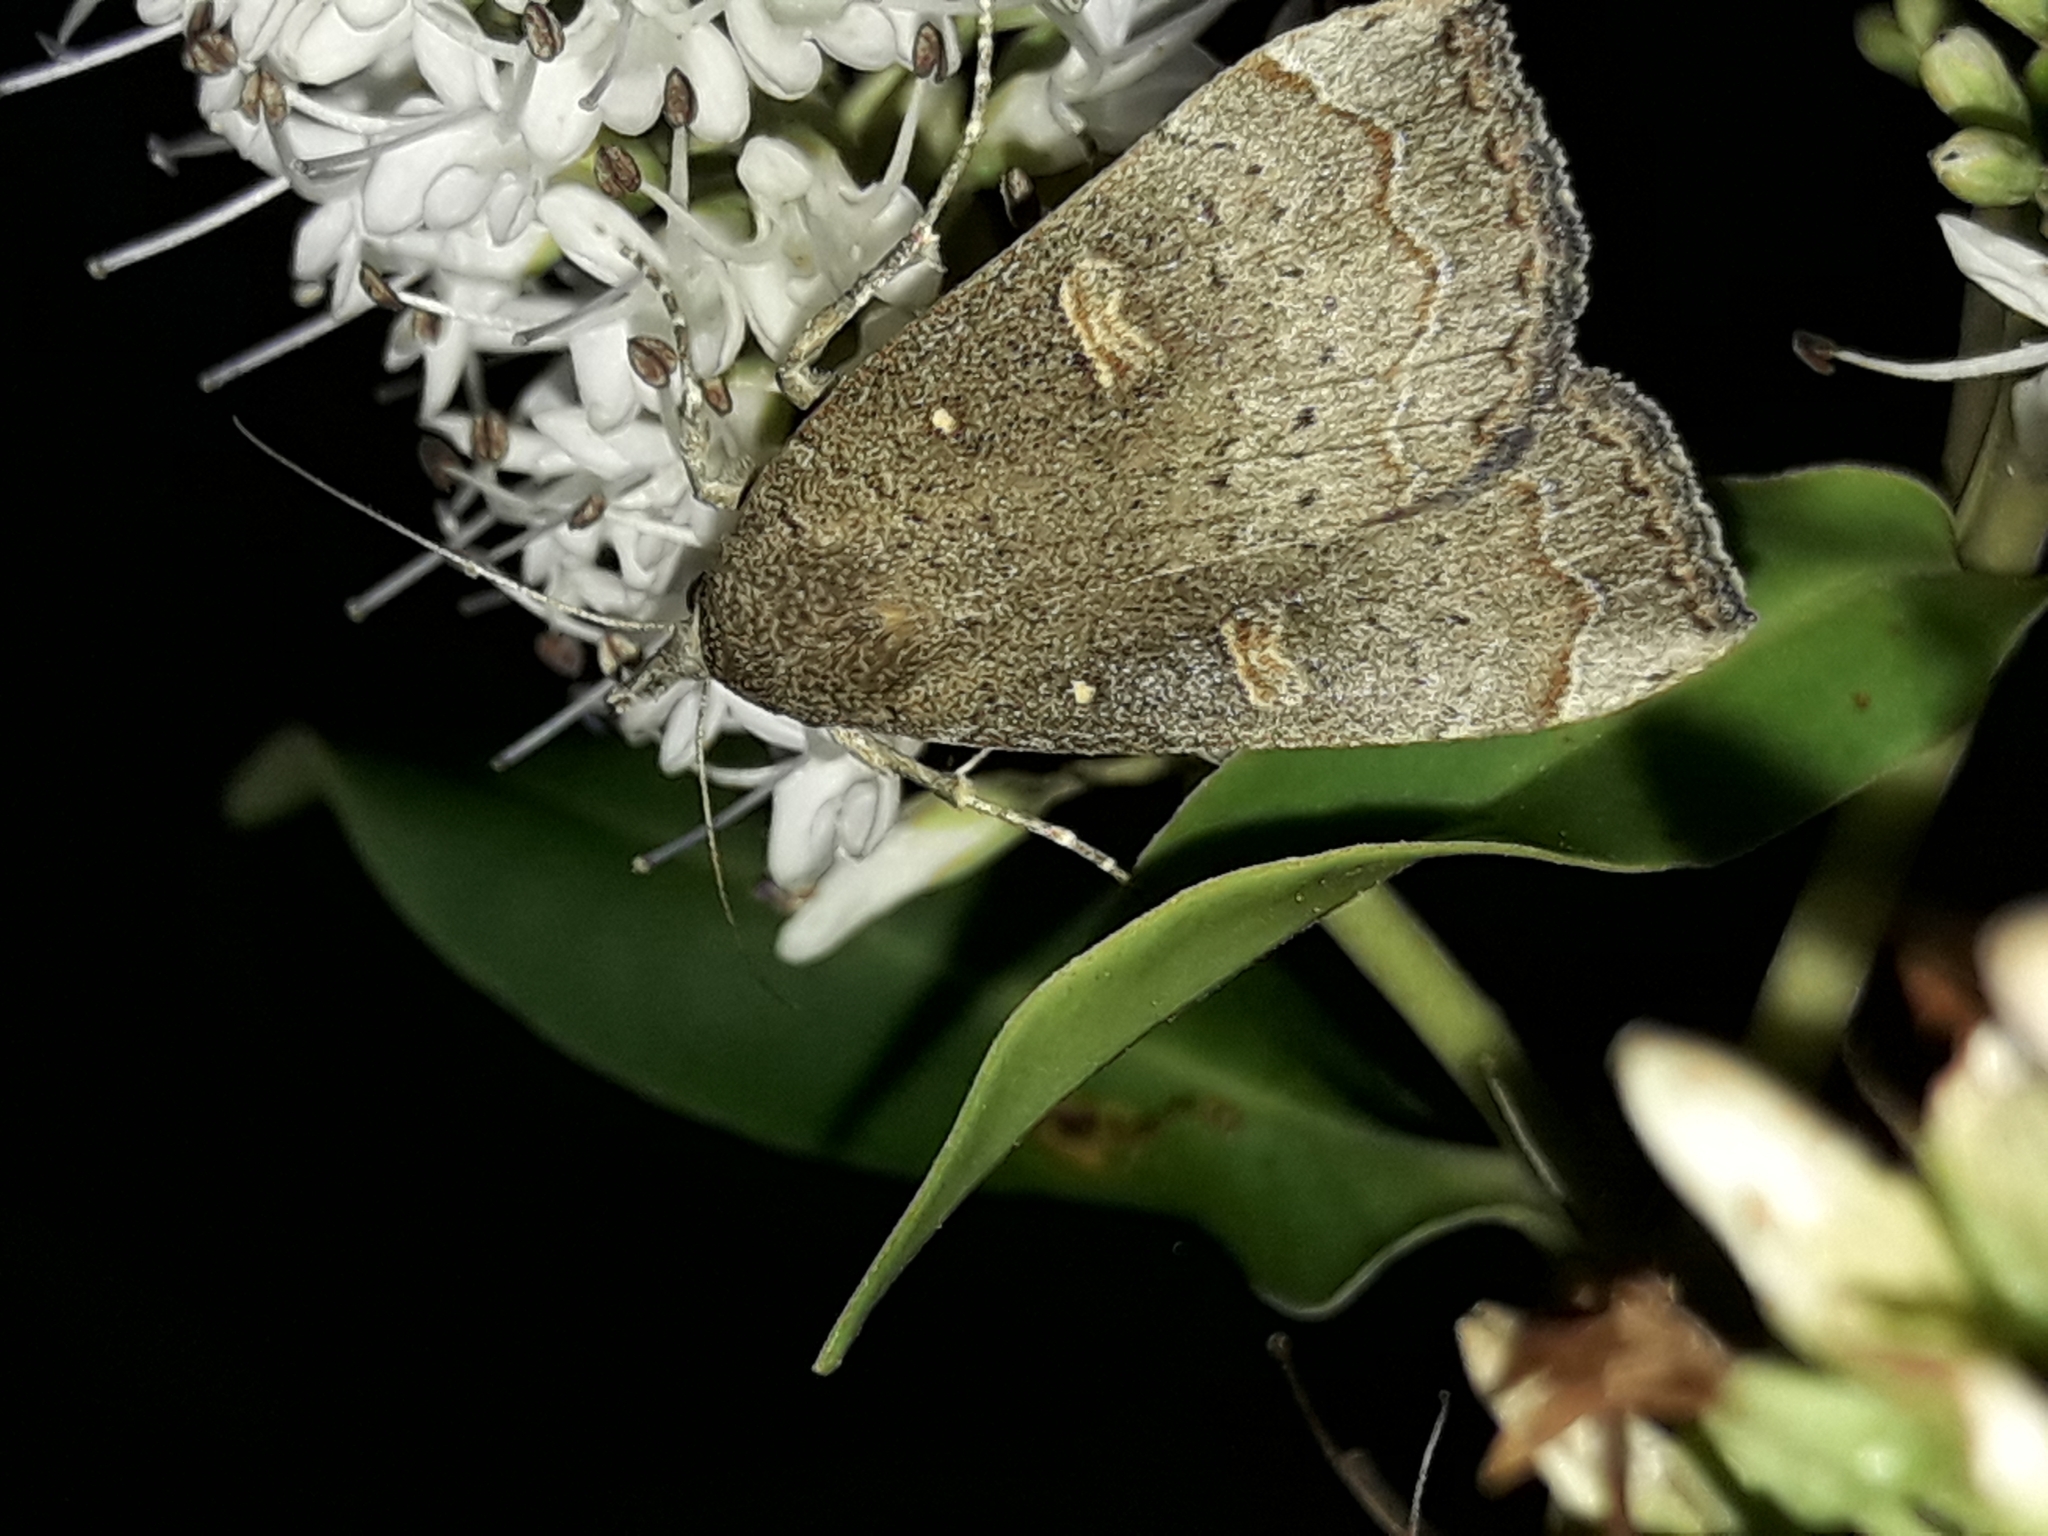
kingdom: Animalia
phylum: Arthropoda
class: Insecta
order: Lepidoptera
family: Erebidae
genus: Rhapsa
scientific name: Rhapsa scotosialis
